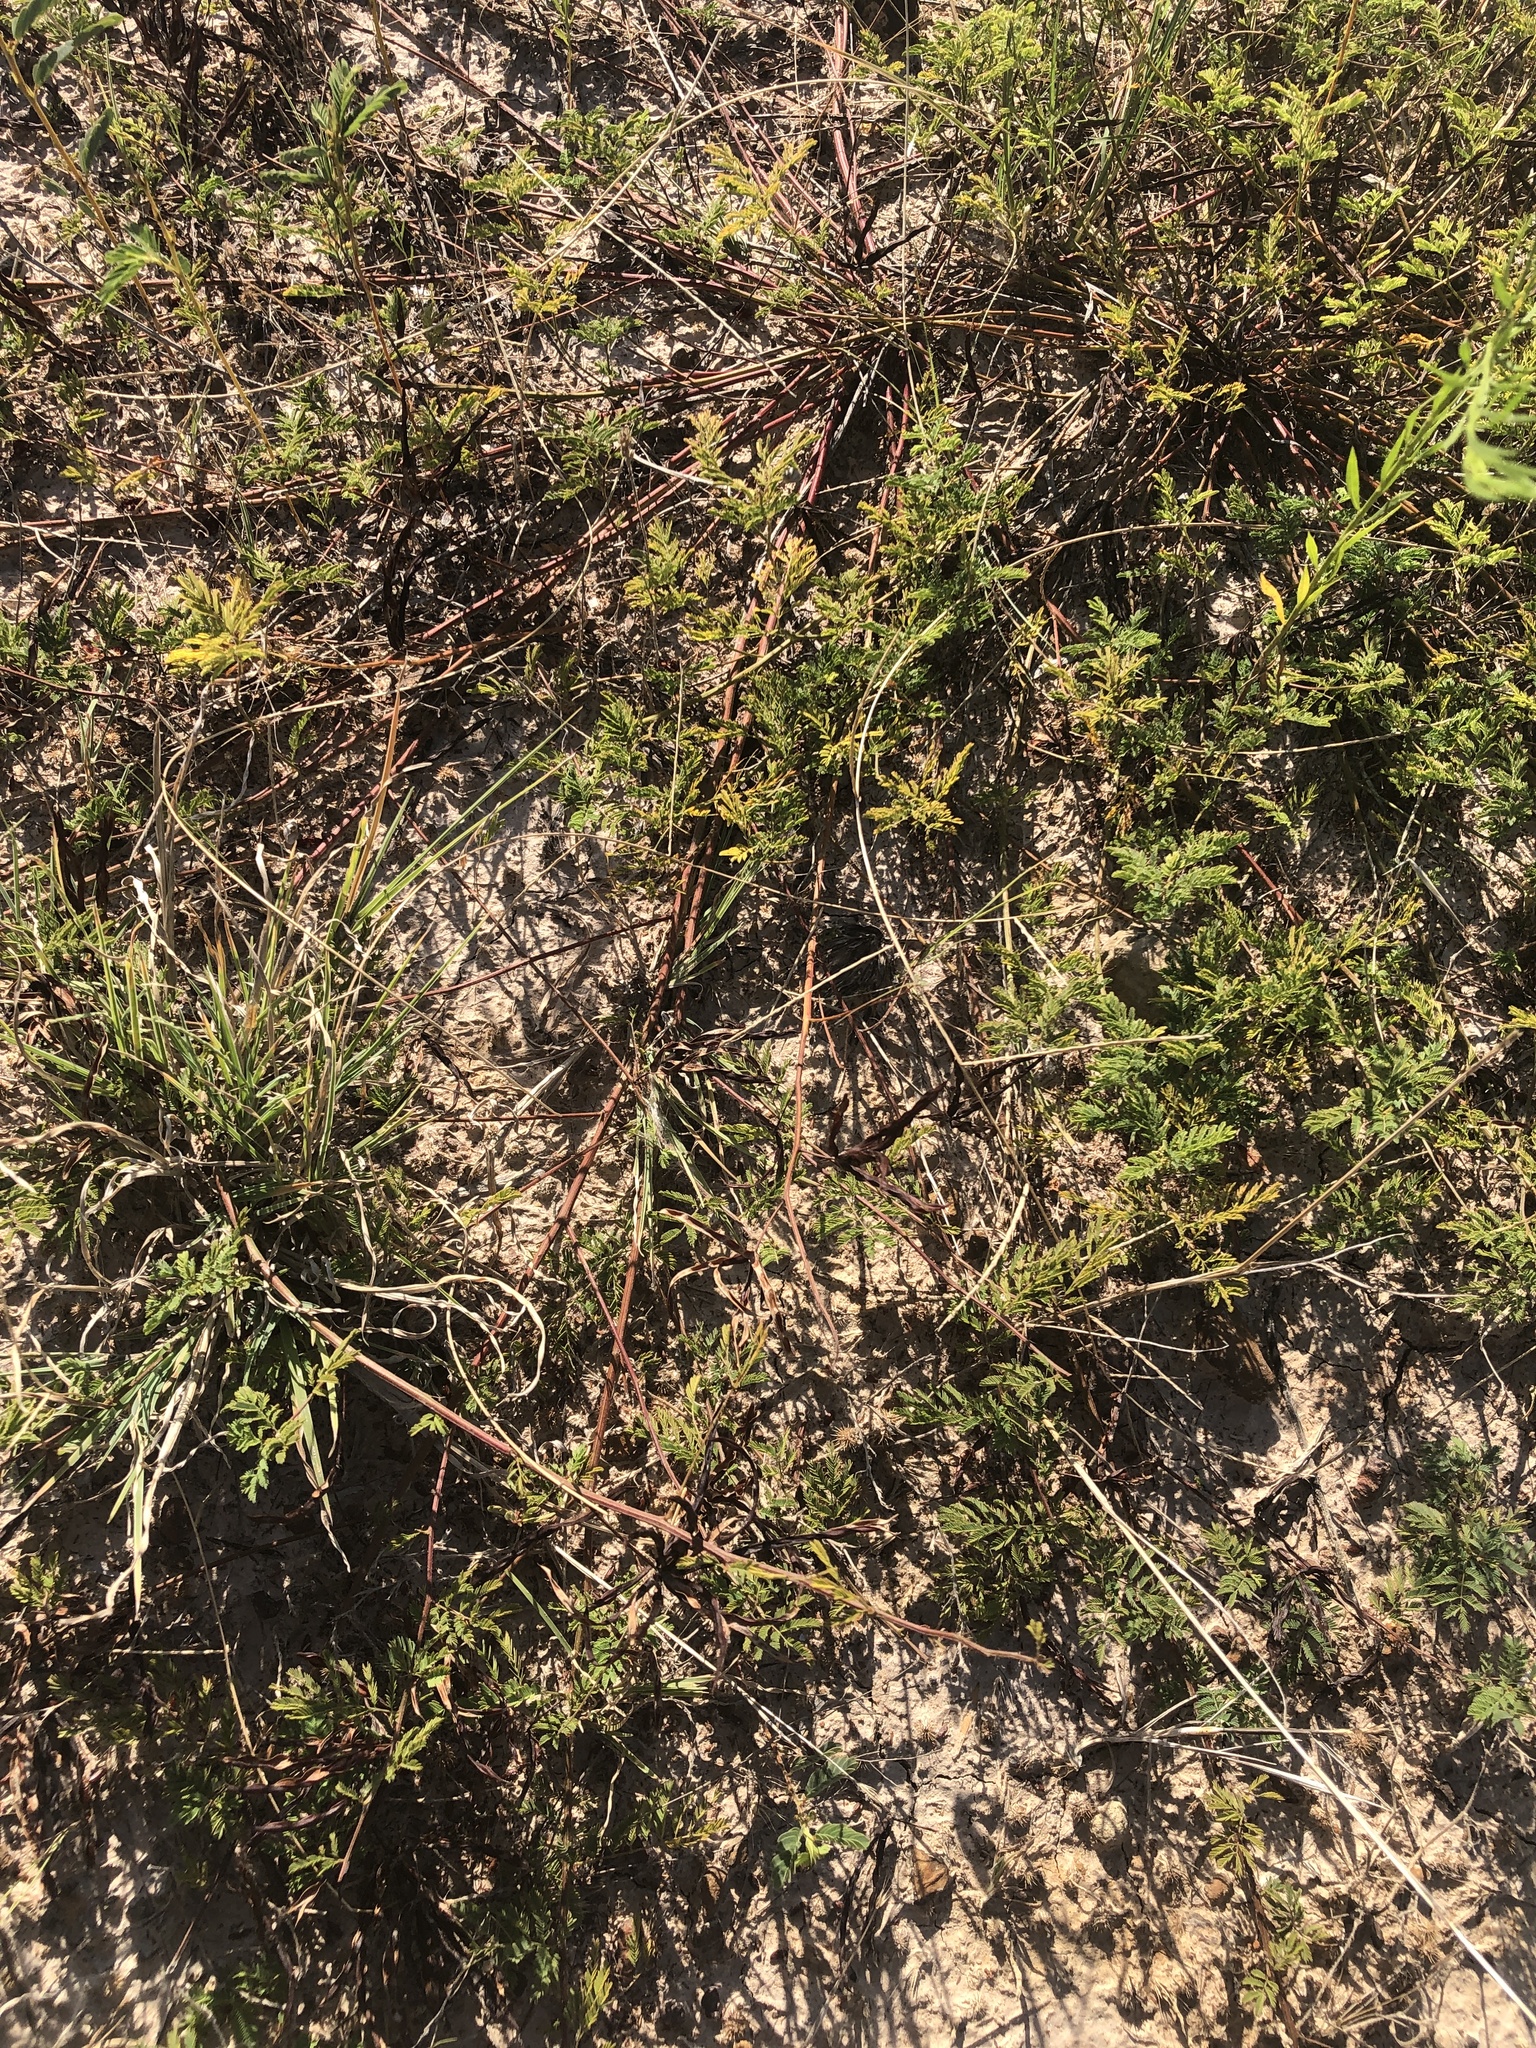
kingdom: Plantae
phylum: Tracheophyta
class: Magnoliopsida
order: Fabales
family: Fabaceae
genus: Desmanthus
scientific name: Desmanthus leptolobus
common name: Prairie-mimosa
